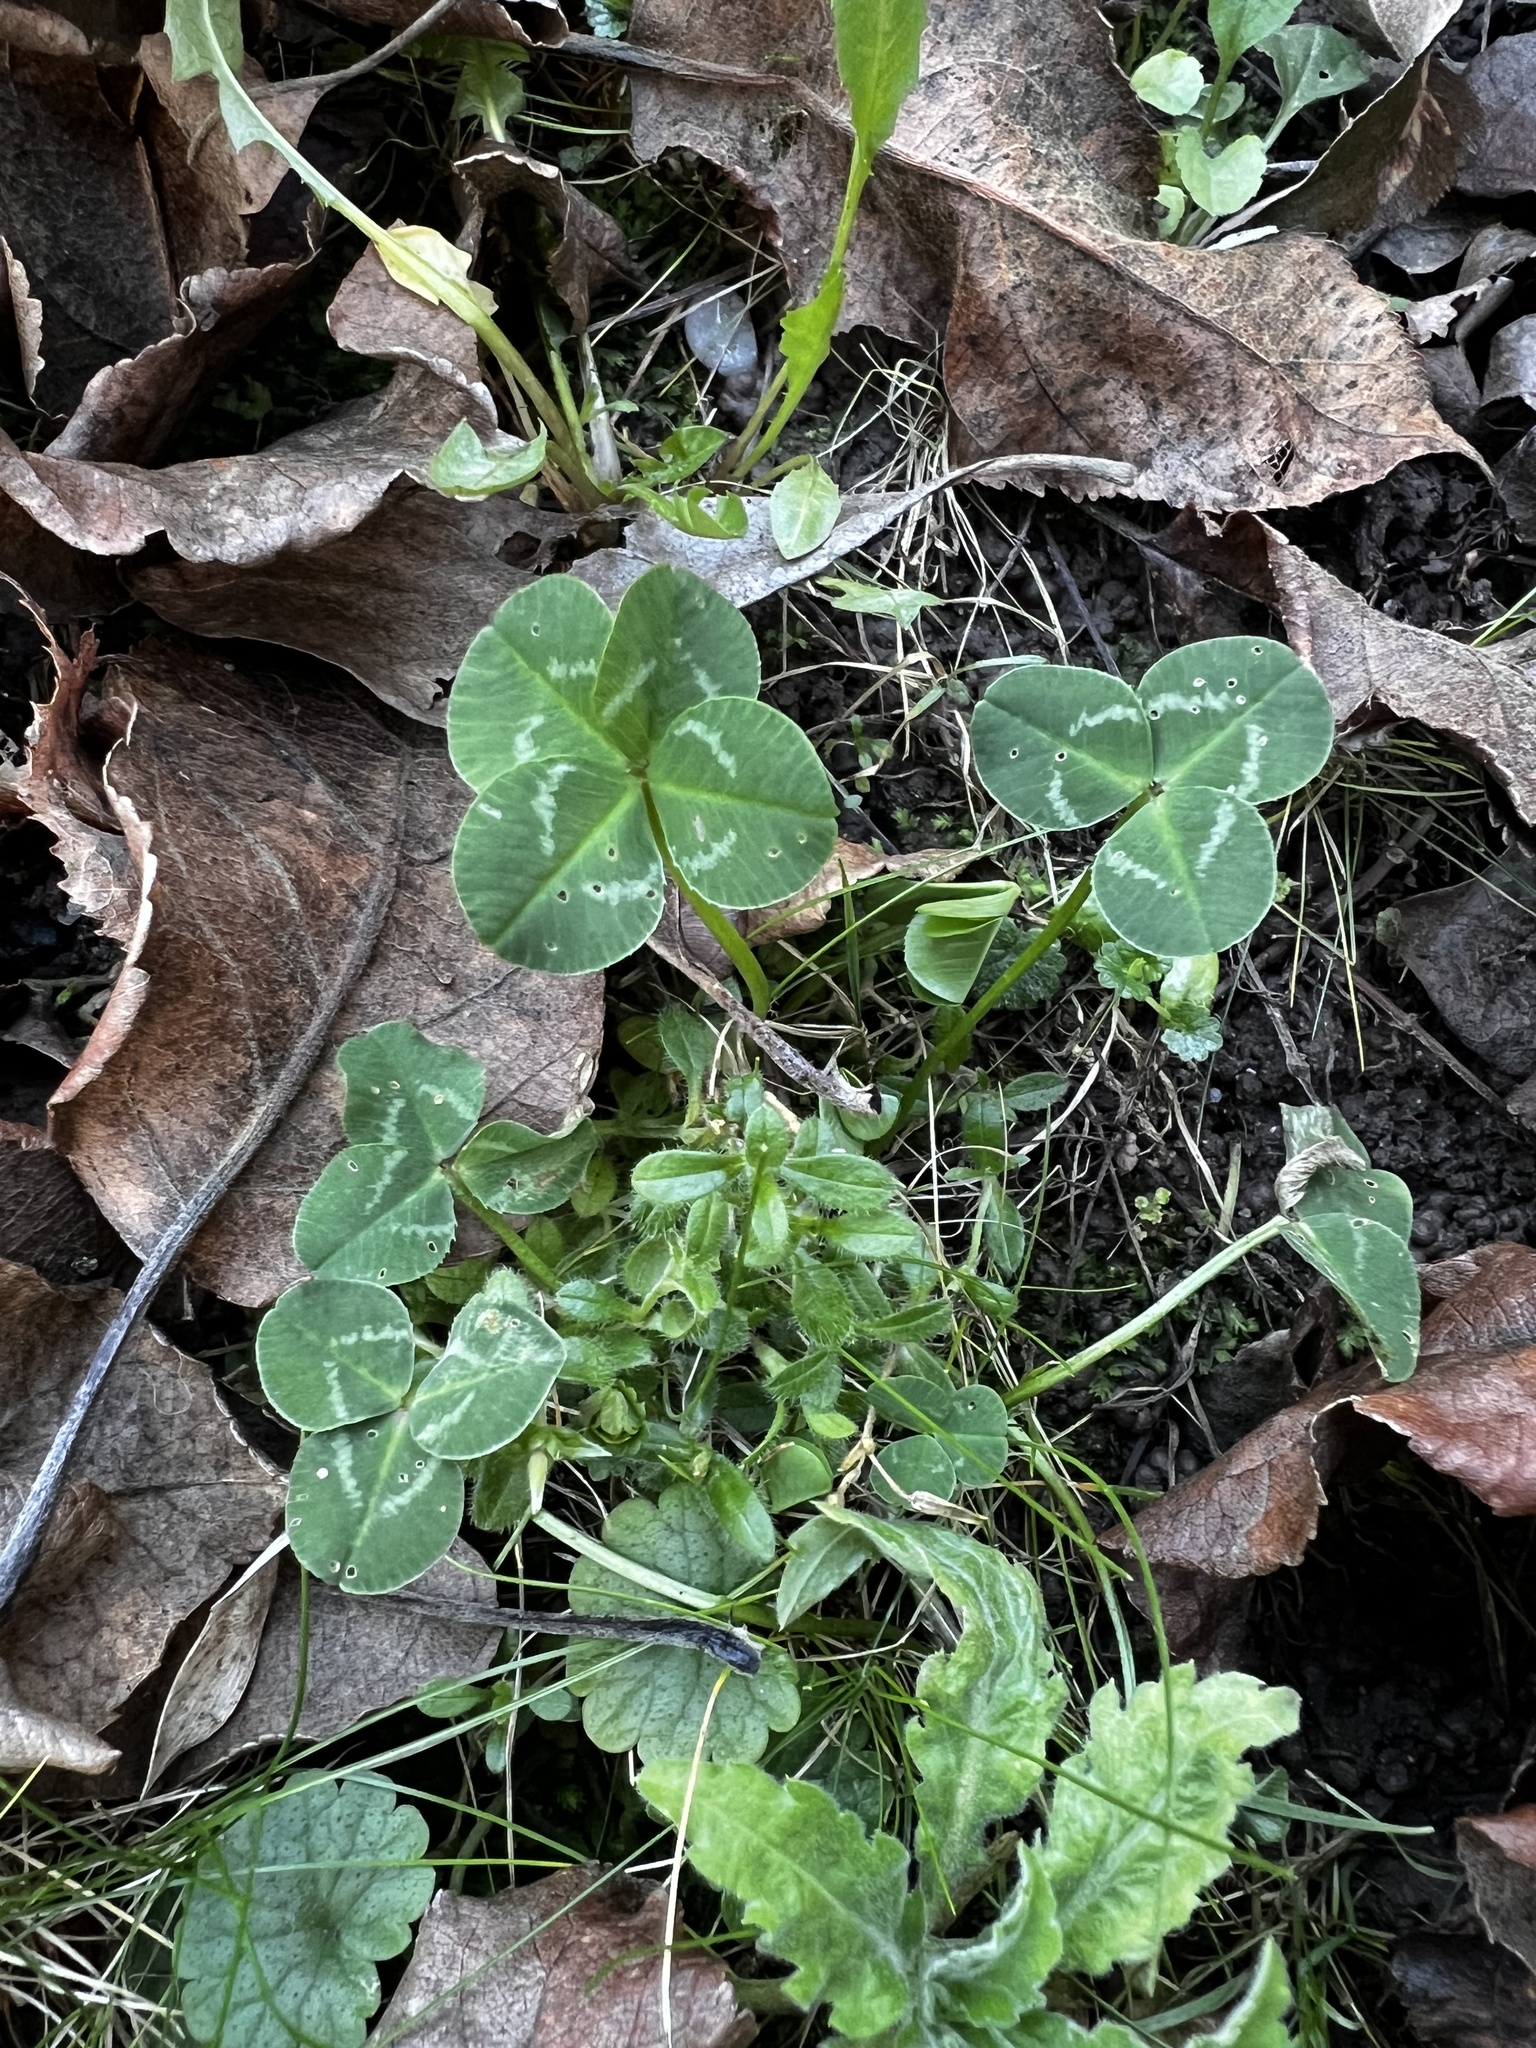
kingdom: Plantae
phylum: Tracheophyta
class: Magnoliopsida
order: Fabales
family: Fabaceae
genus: Trifolium
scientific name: Trifolium repens
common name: White clover
